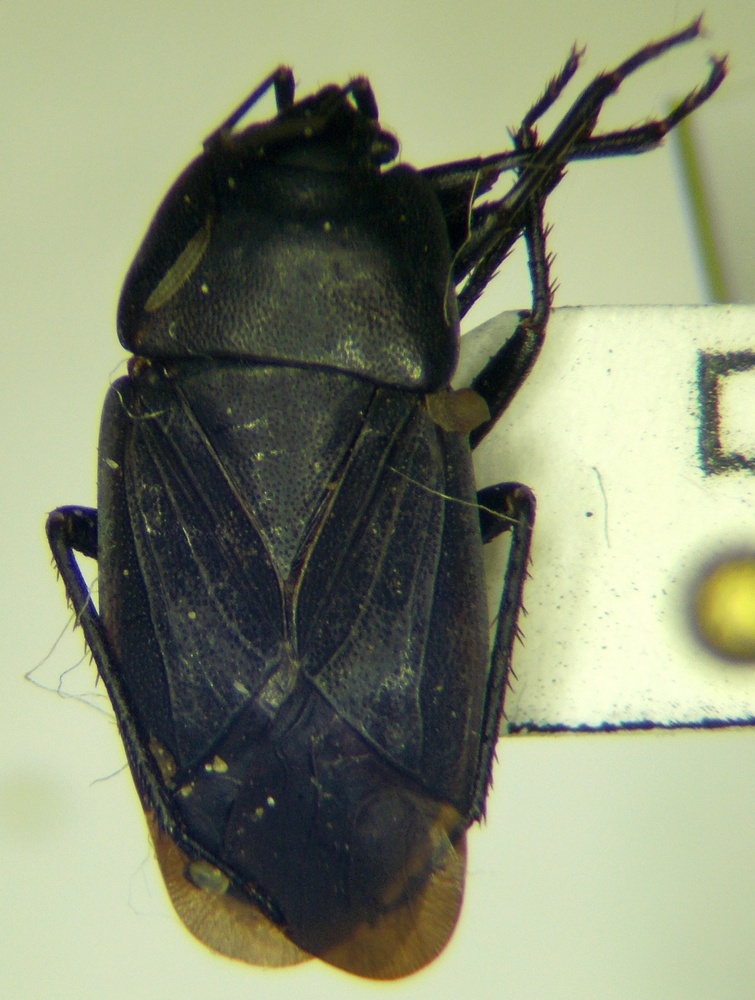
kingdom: Animalia
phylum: Arthropoda
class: Insecta
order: Hemiptera
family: Rhyparochromidae
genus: Aellopus
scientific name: Aellopus atratus
